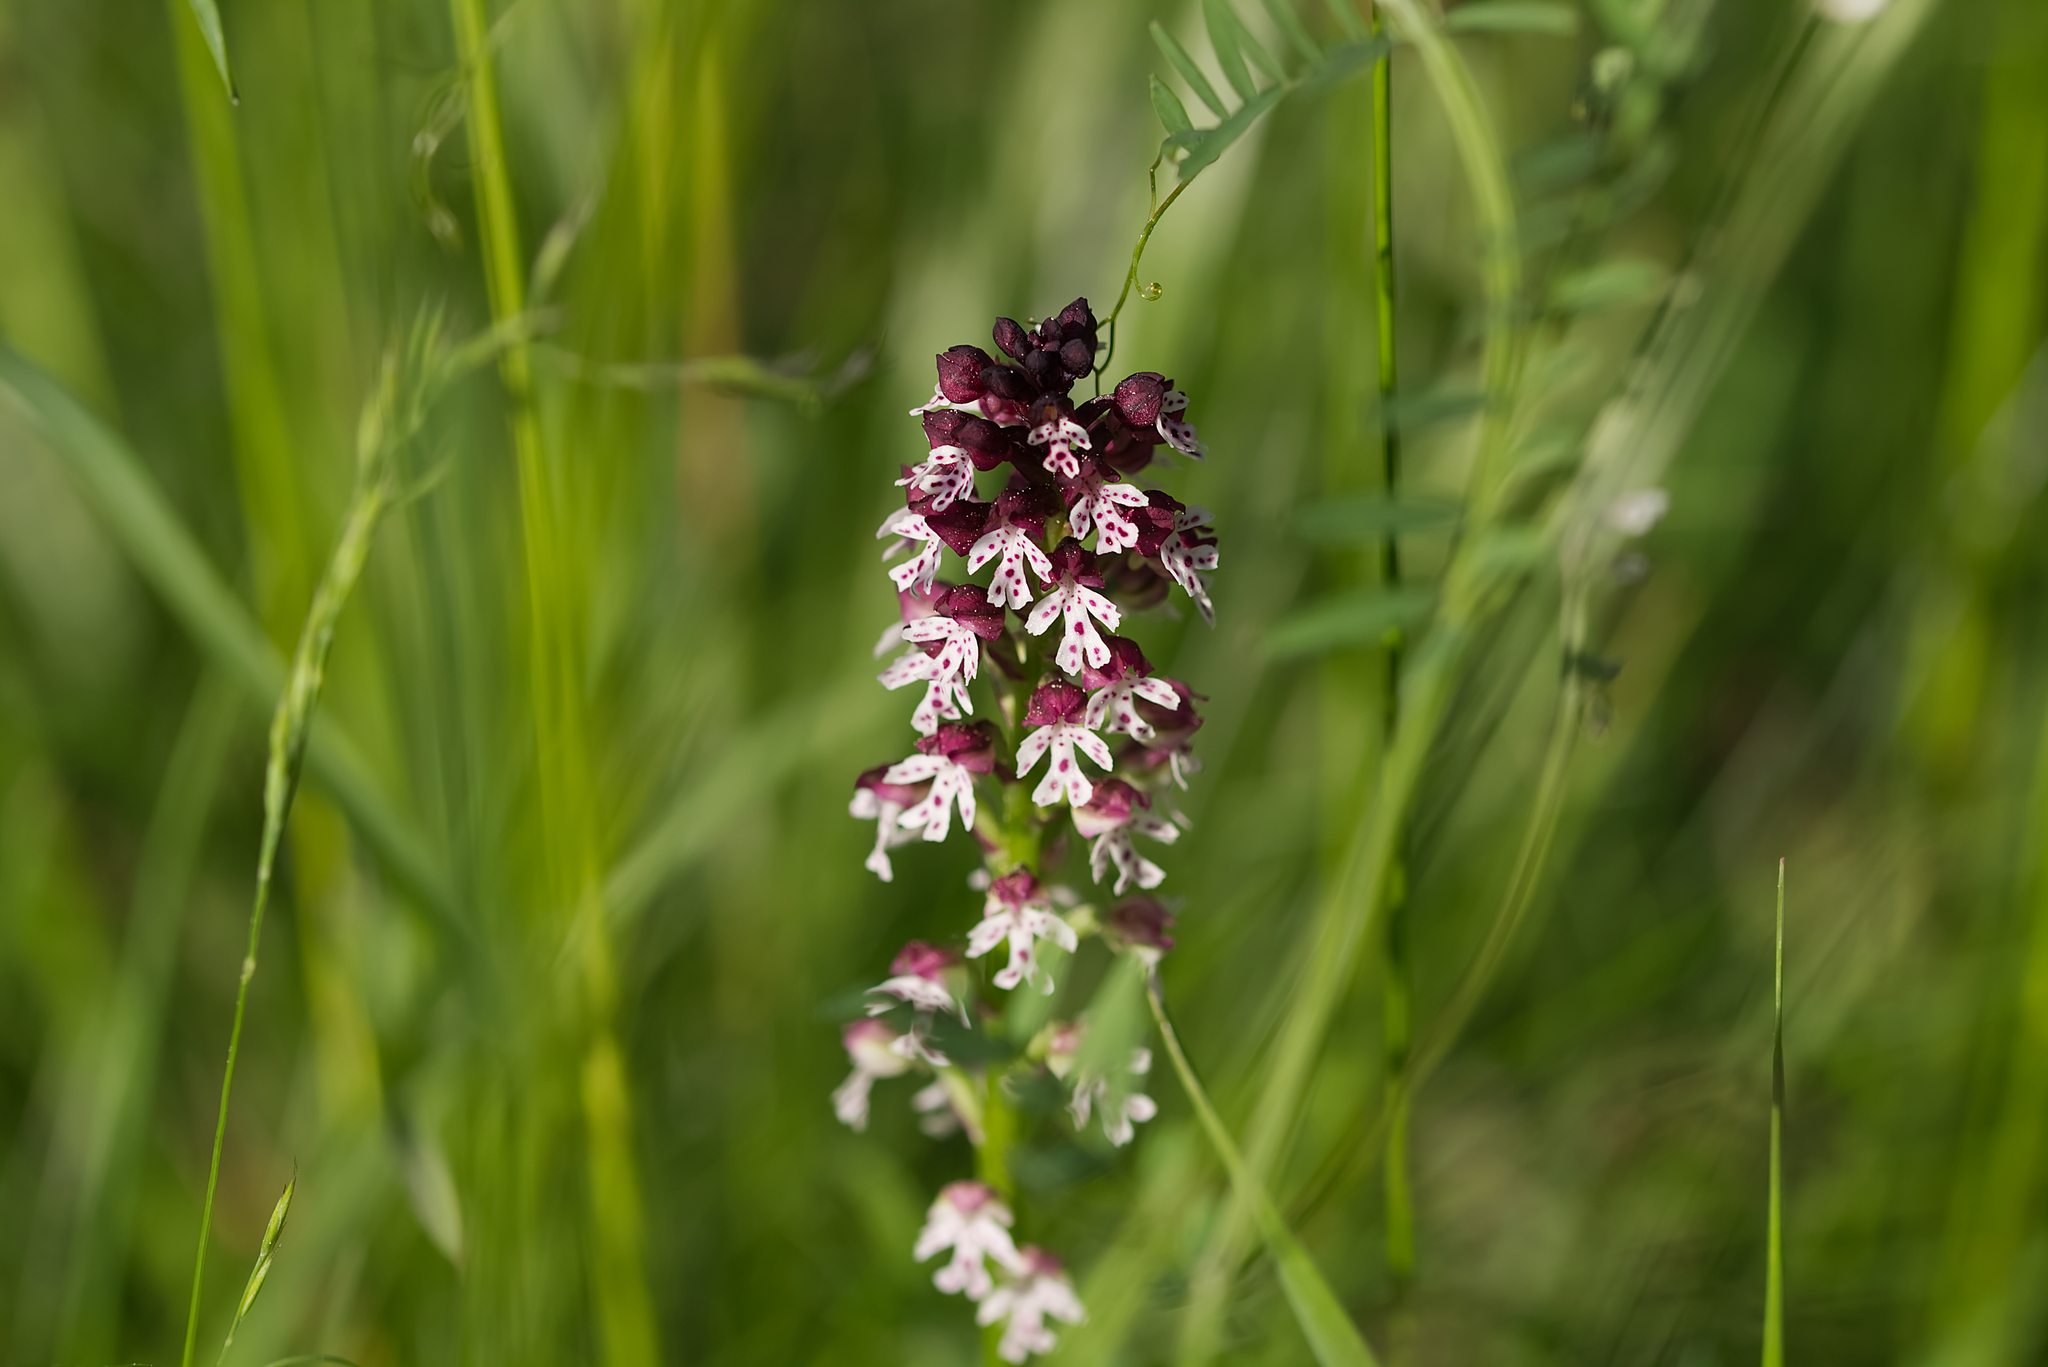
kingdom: Plantae
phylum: Tracheophyta
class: Liliopsida
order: Asparagales
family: Orchidaceae
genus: Neotinea
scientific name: Neotinea ustulata
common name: Burnt orchid
